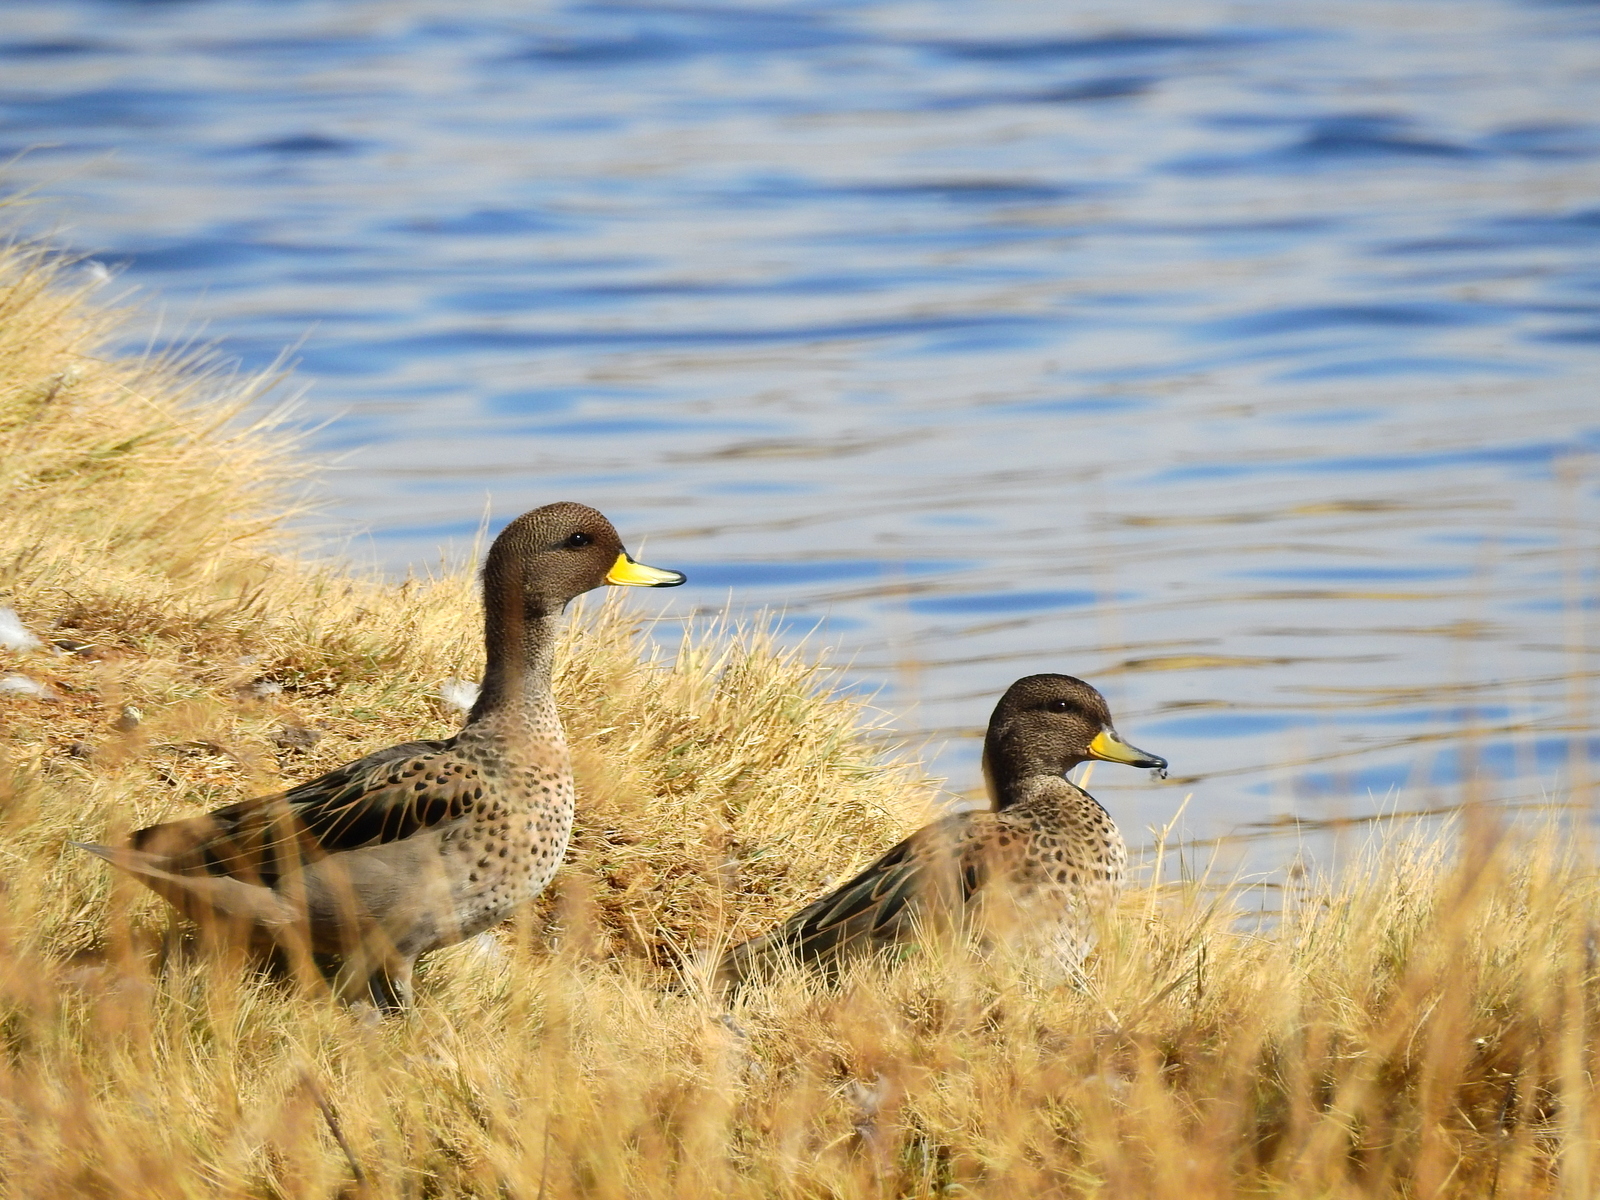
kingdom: Animalia
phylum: Chordata
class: Aves
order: Anseriformes
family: Anatidae
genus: Anas
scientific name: Anas flavirostris
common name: Yellow-billed teal
